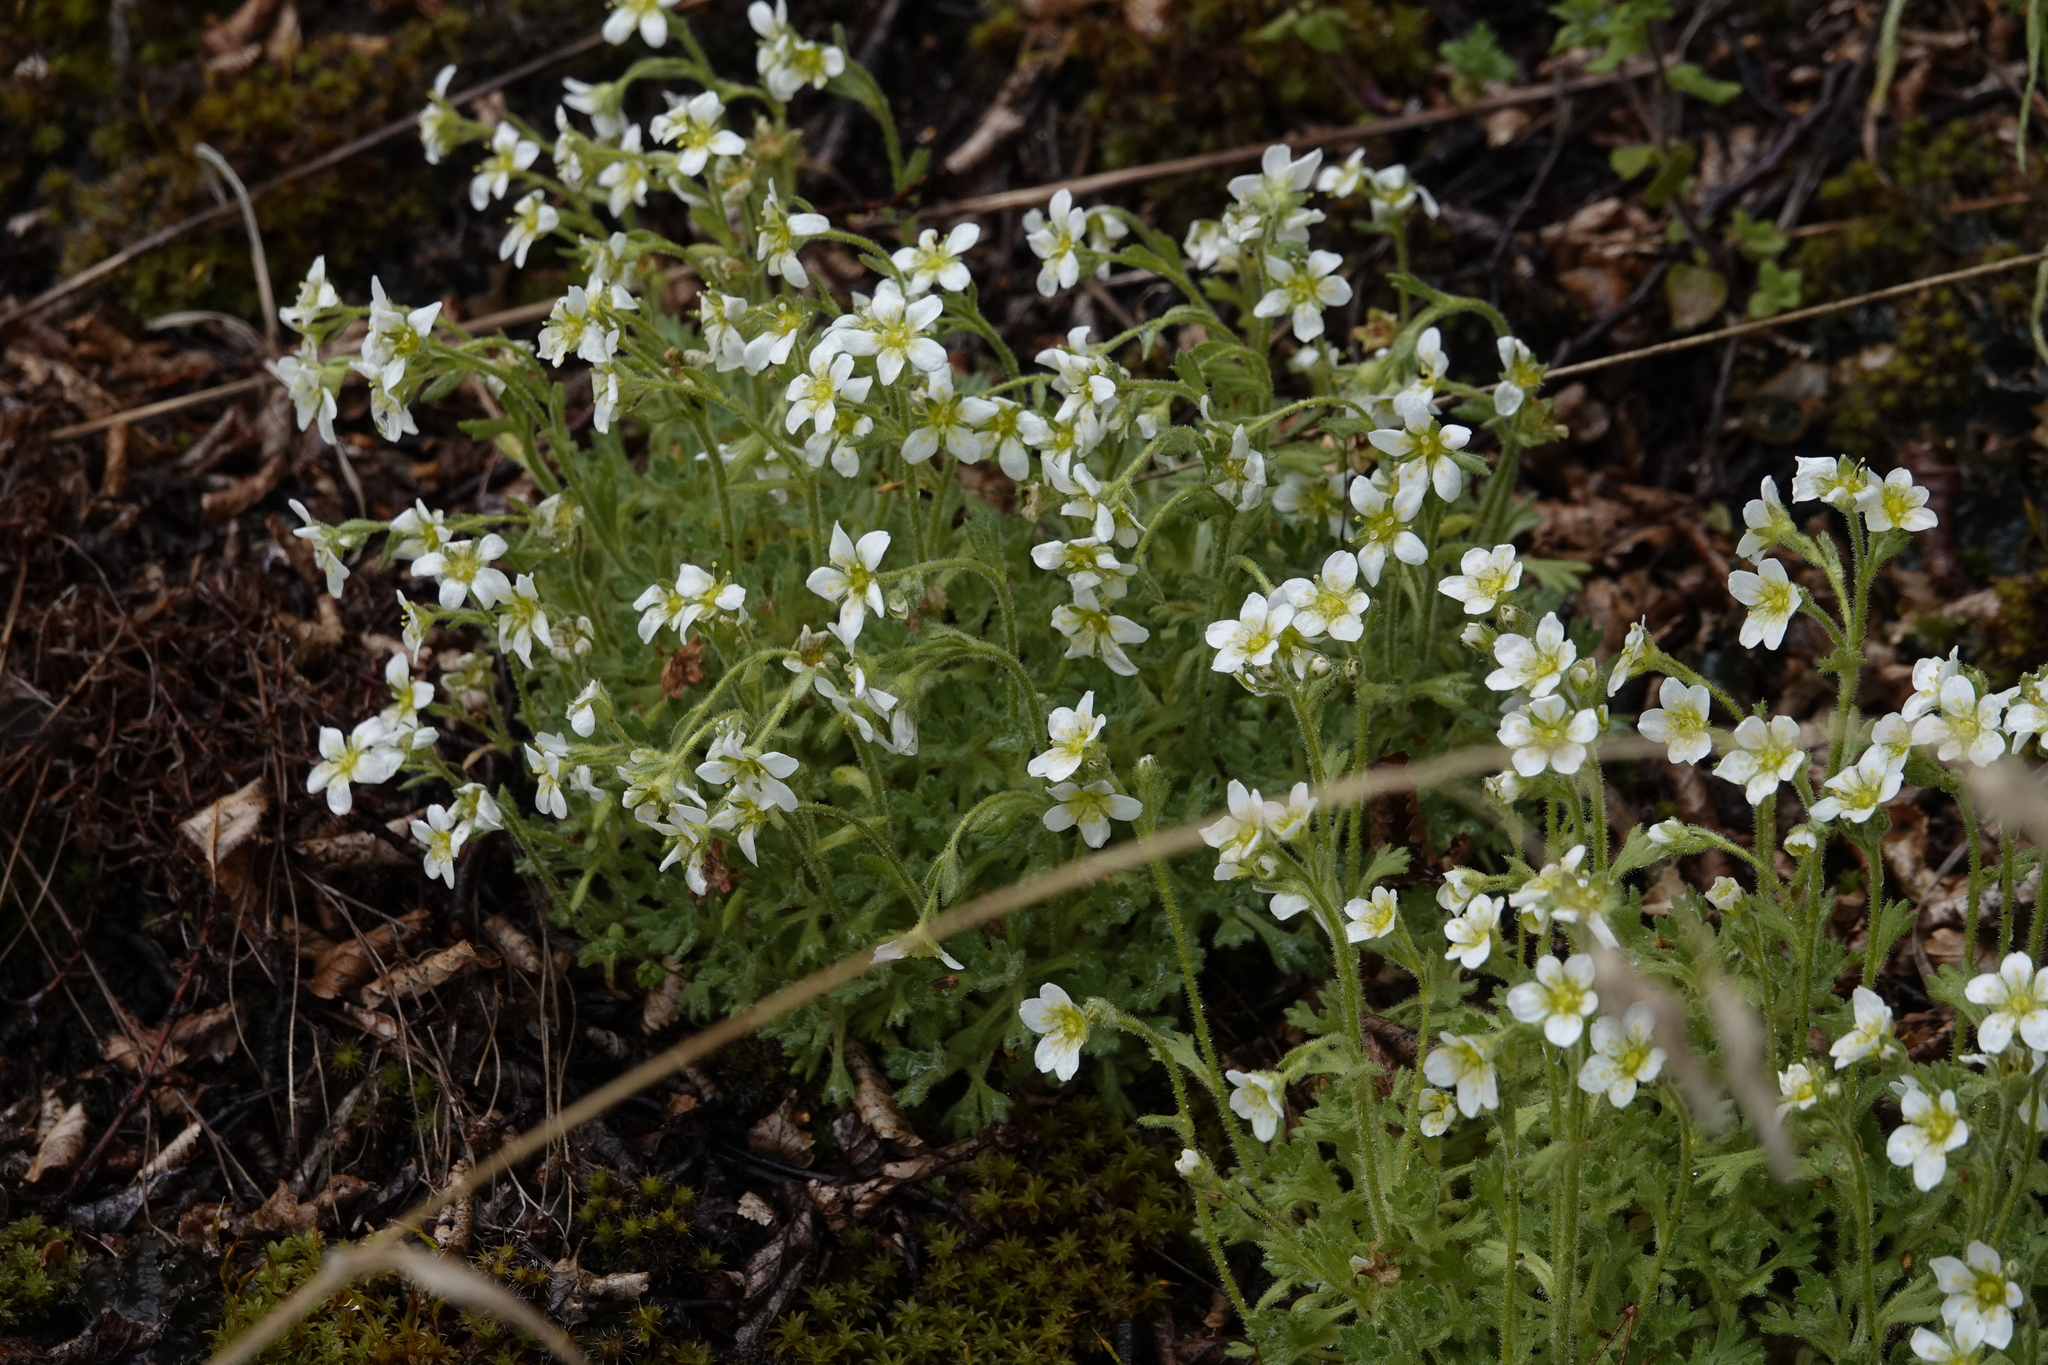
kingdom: Plantae
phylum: Tracheophyta
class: Magnoliopsida
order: Saxifragales
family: Saxifragaceae
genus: Saxifraga
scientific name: Saxifraga magellanica
